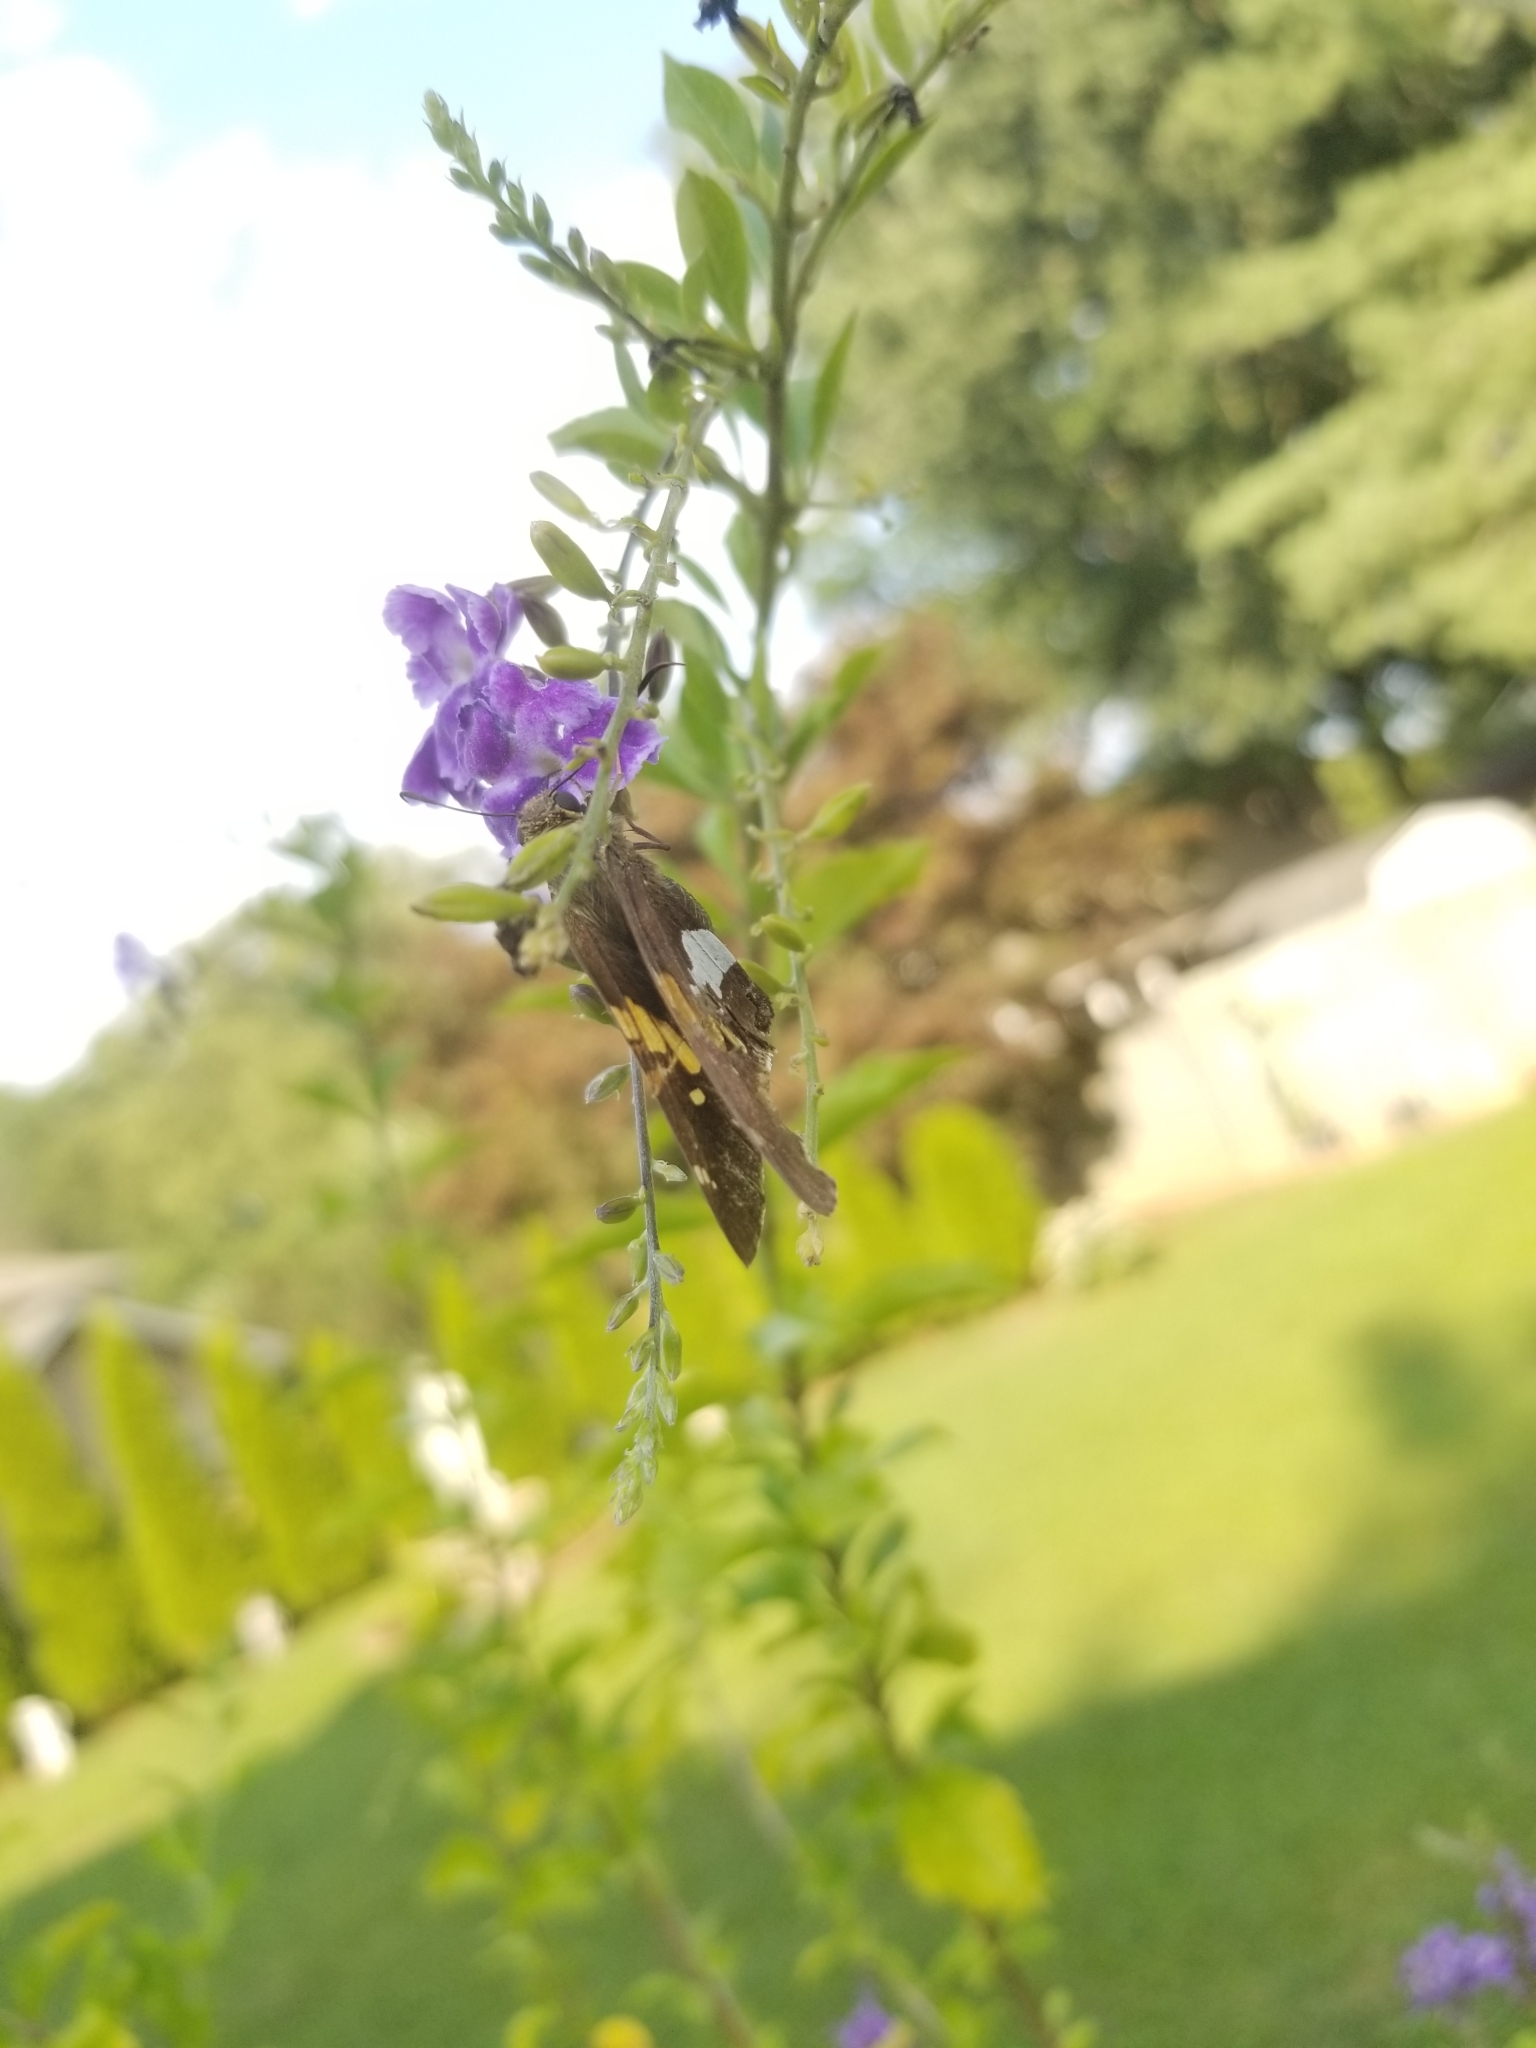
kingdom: Animalia
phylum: Arthropoda
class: Insecta
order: Lepidoptera
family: Hesperiidae
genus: Epargyreus
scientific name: Epargyreus clarus
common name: Silver-spotted skipper
